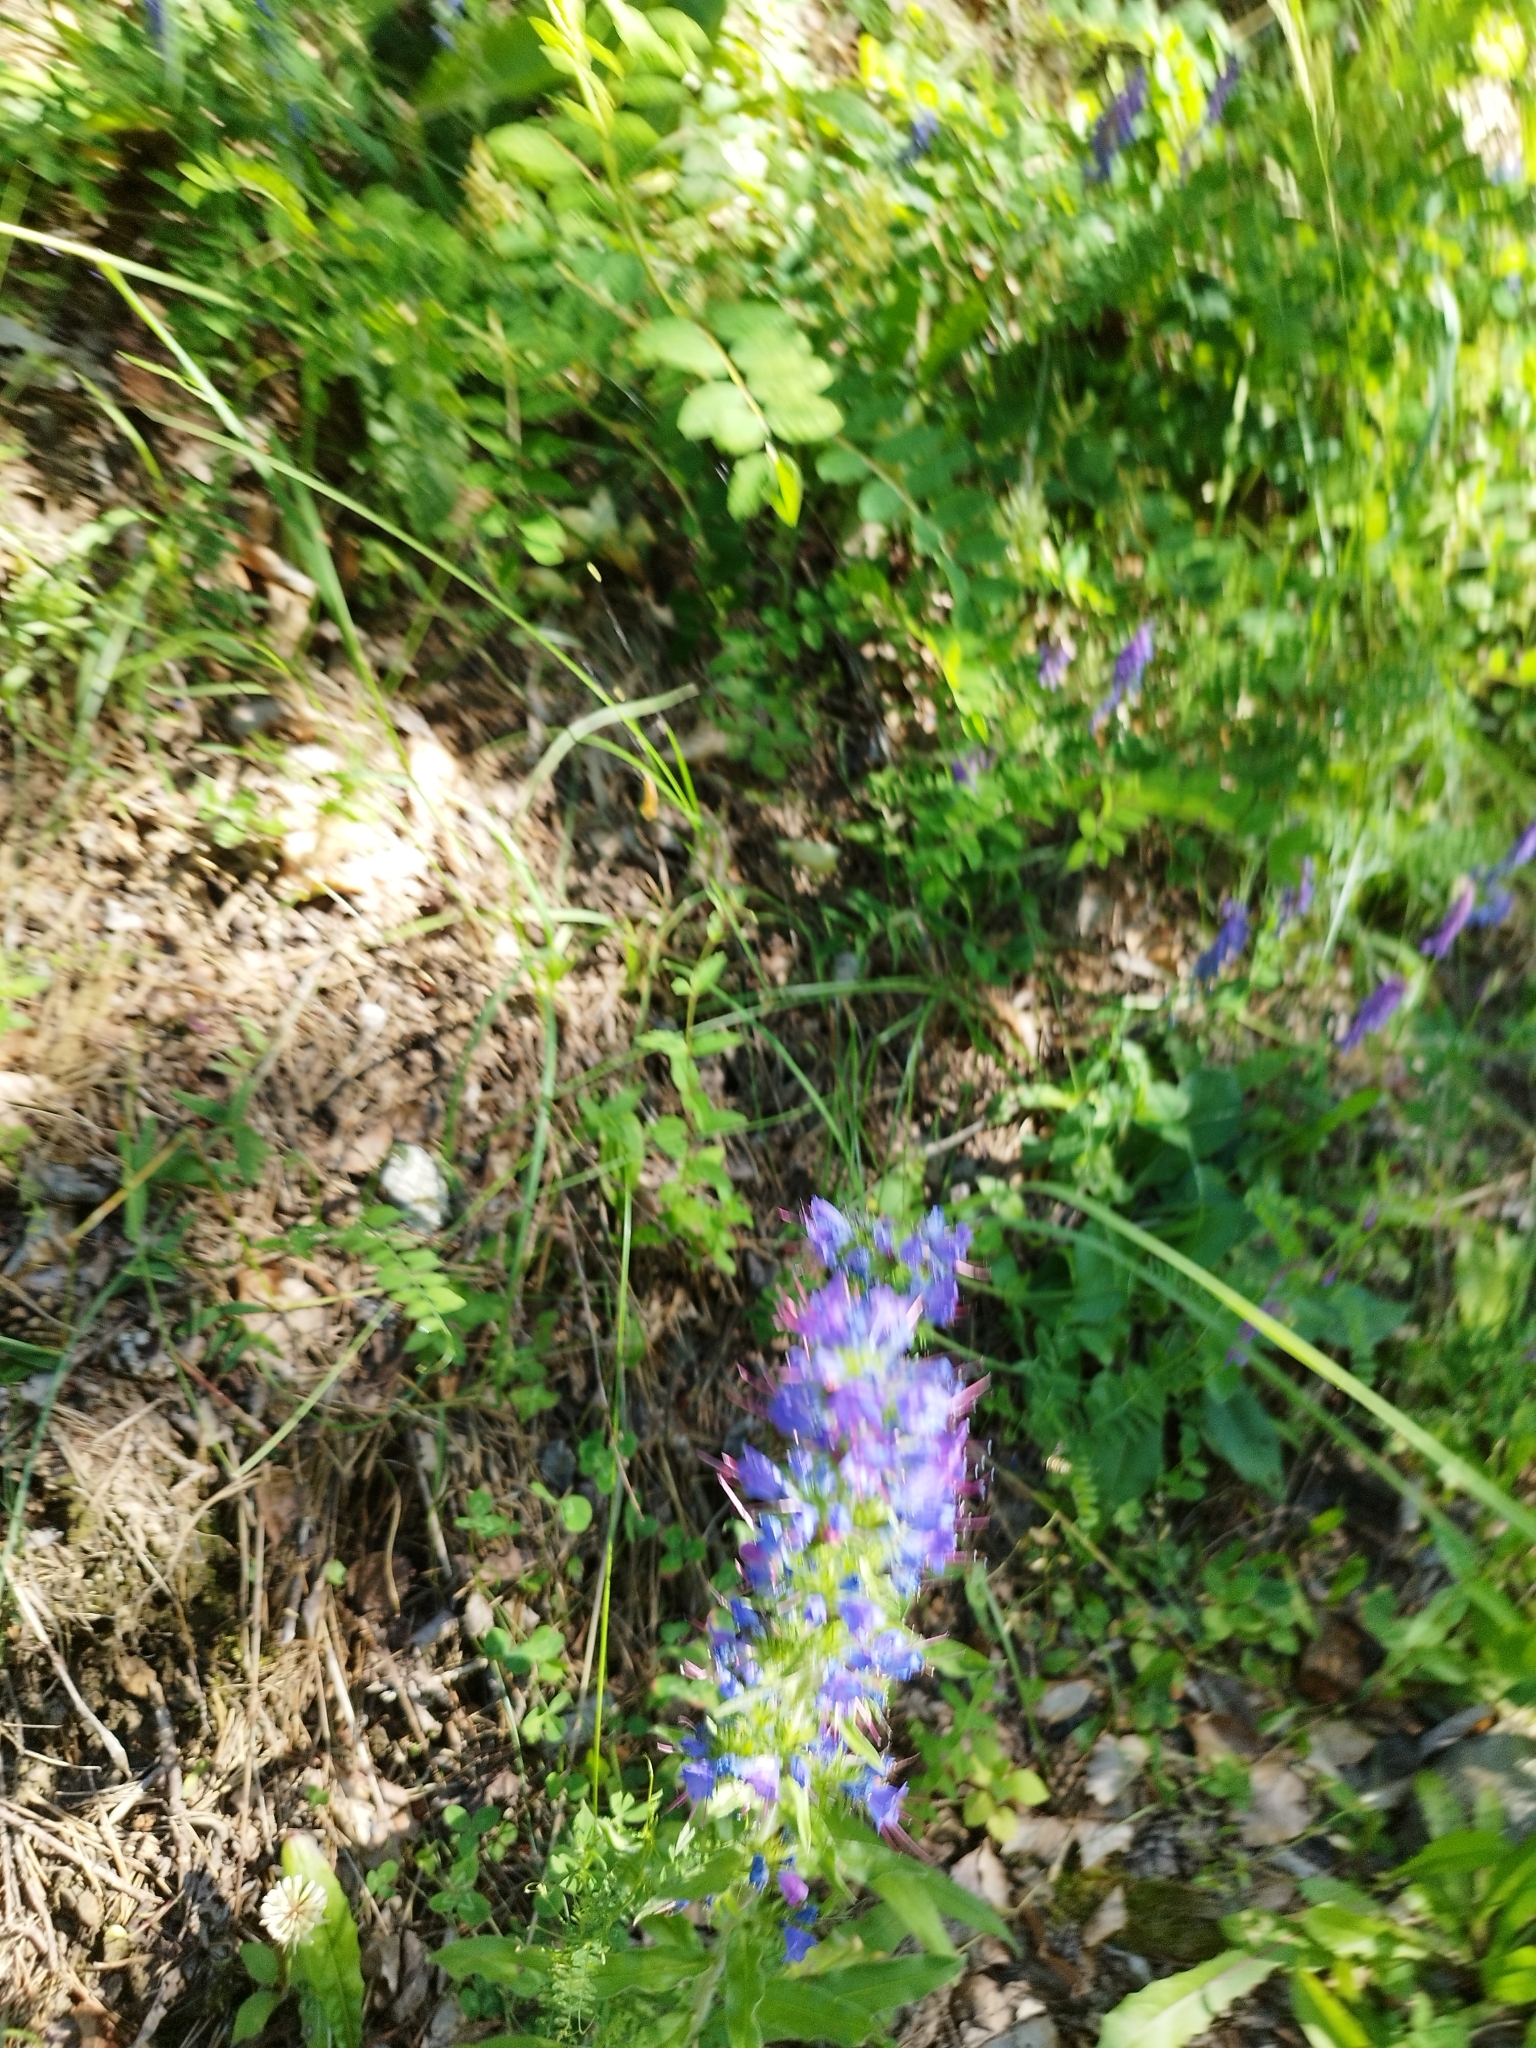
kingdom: Plantae
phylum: Tracheophyta
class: Magnoliopsida
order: Boraginales
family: Boraginaceae
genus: Echium
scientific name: Echium vulgare
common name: Common viper's bugloss
